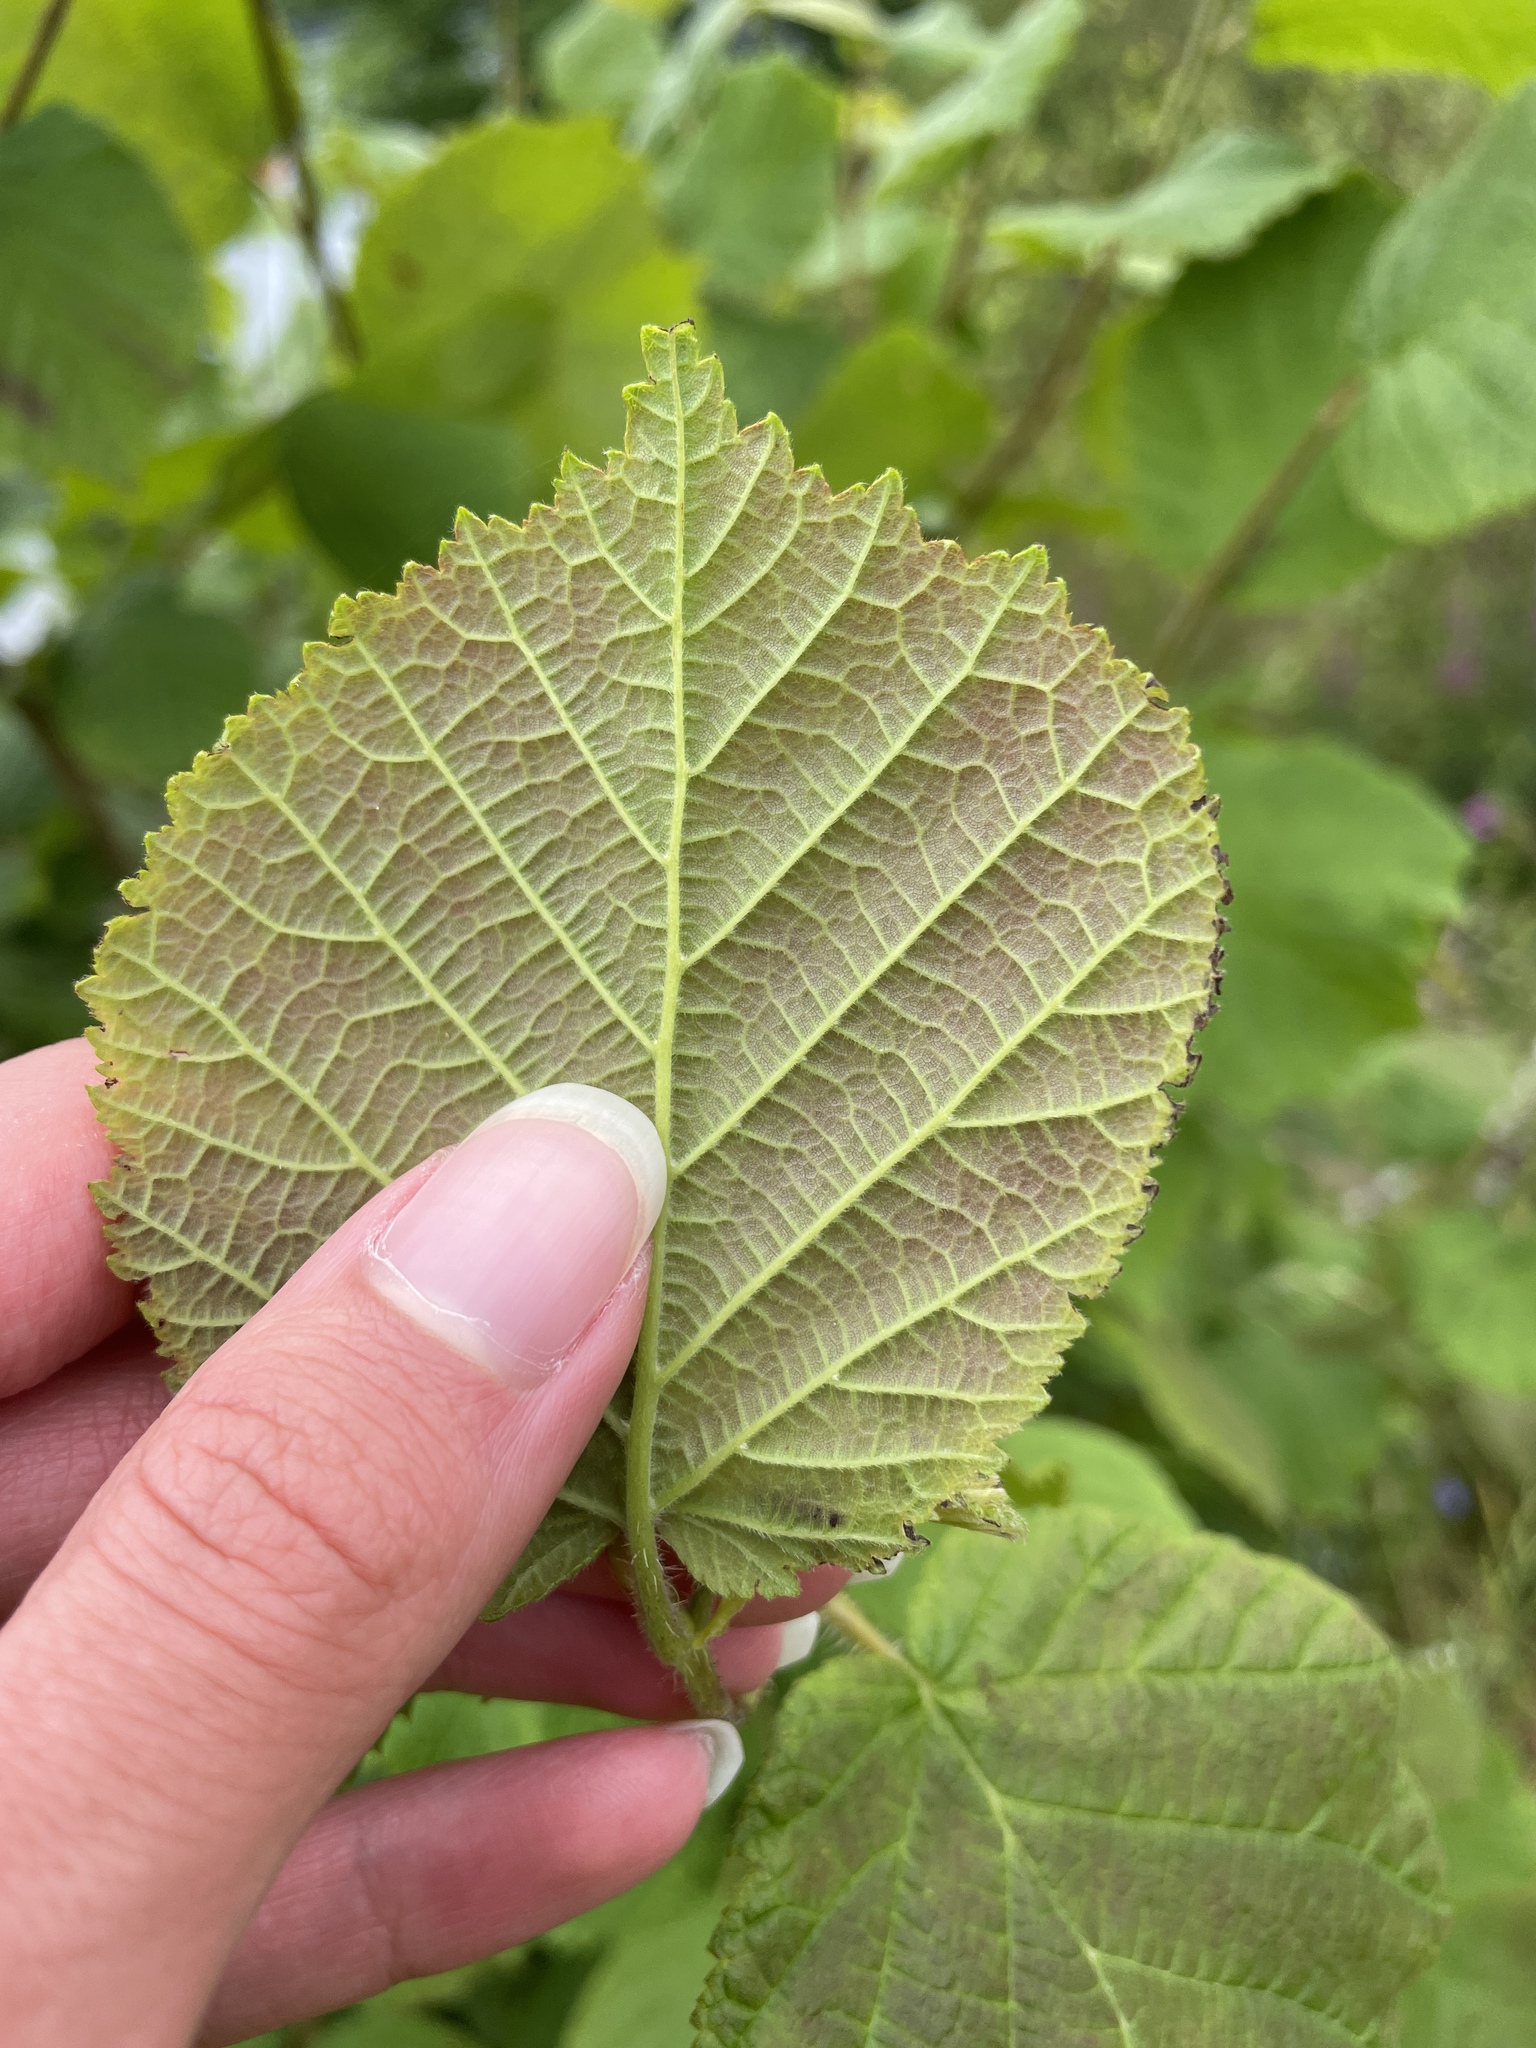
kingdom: Plantae
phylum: Tracheophyta
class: Magnoliopsida
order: Fagales
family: Betulaceae
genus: Corylus
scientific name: Corylus avellana
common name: European hazel
